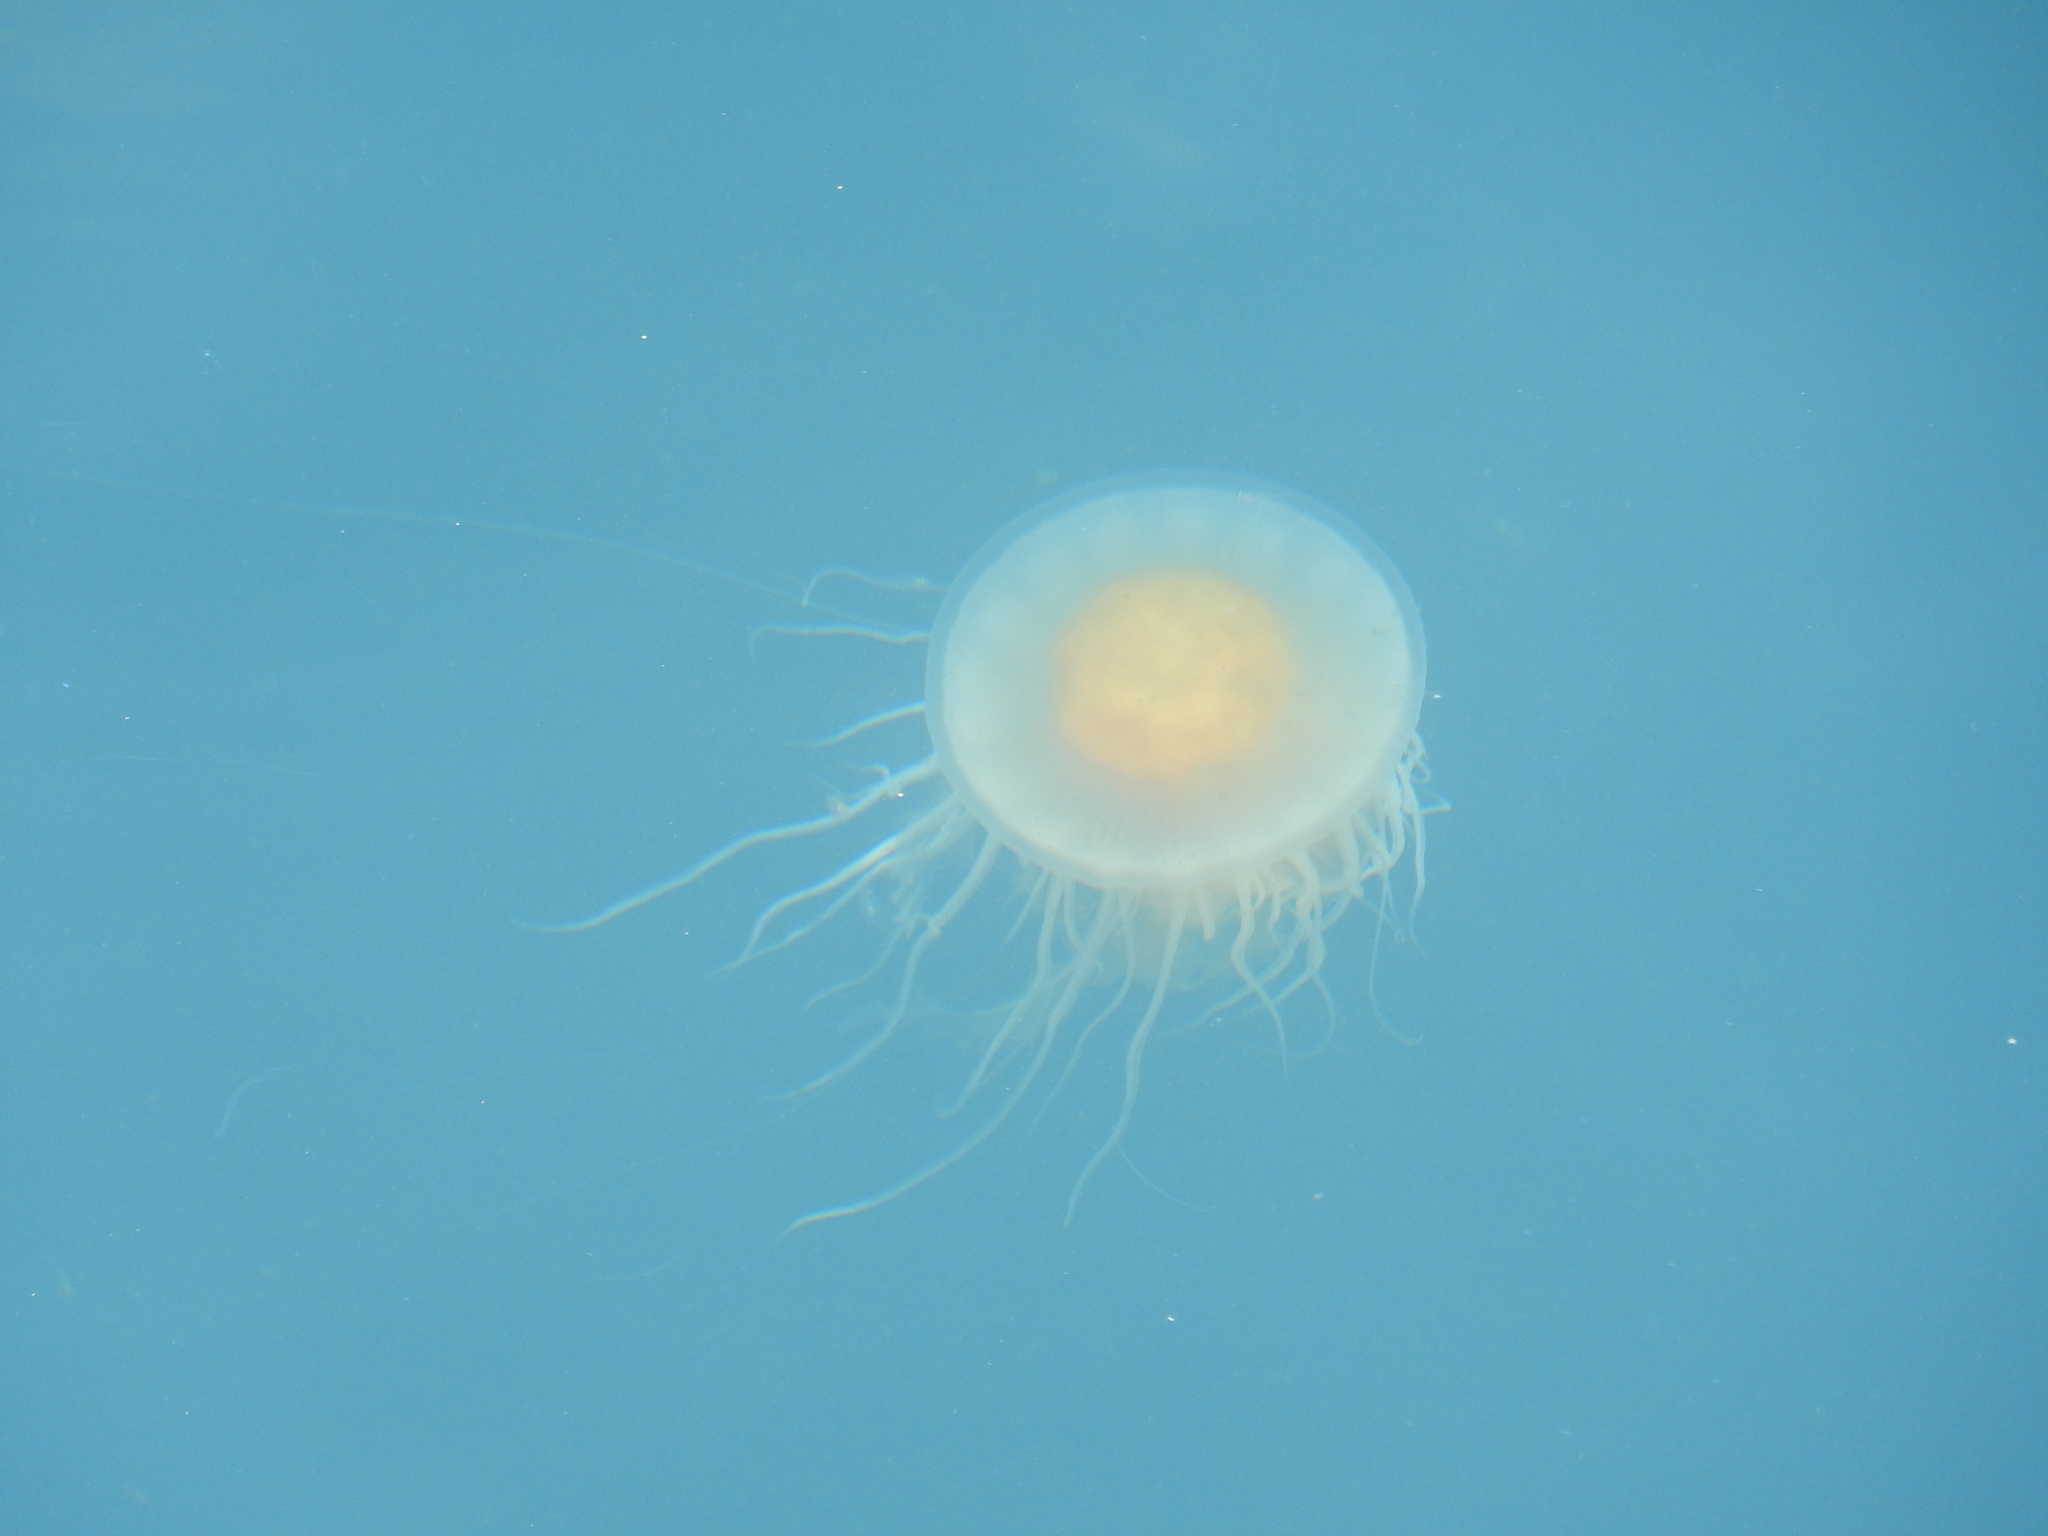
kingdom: Animalia
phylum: Cnidaria
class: Scyphozoa
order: Semaeostomeae
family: Phacellophoridae
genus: Phacellophora
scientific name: Phacellophora camtschatica
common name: Fried-egg jellyfish
